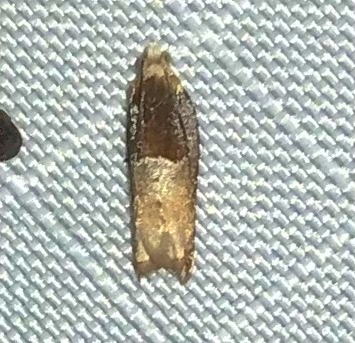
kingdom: Animalia
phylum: Arthropoda
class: Insecta
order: Lepidoptera
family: Tortricidae
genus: Ancylis
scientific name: Ancylis divisana
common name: Two-toned ancylis moth
